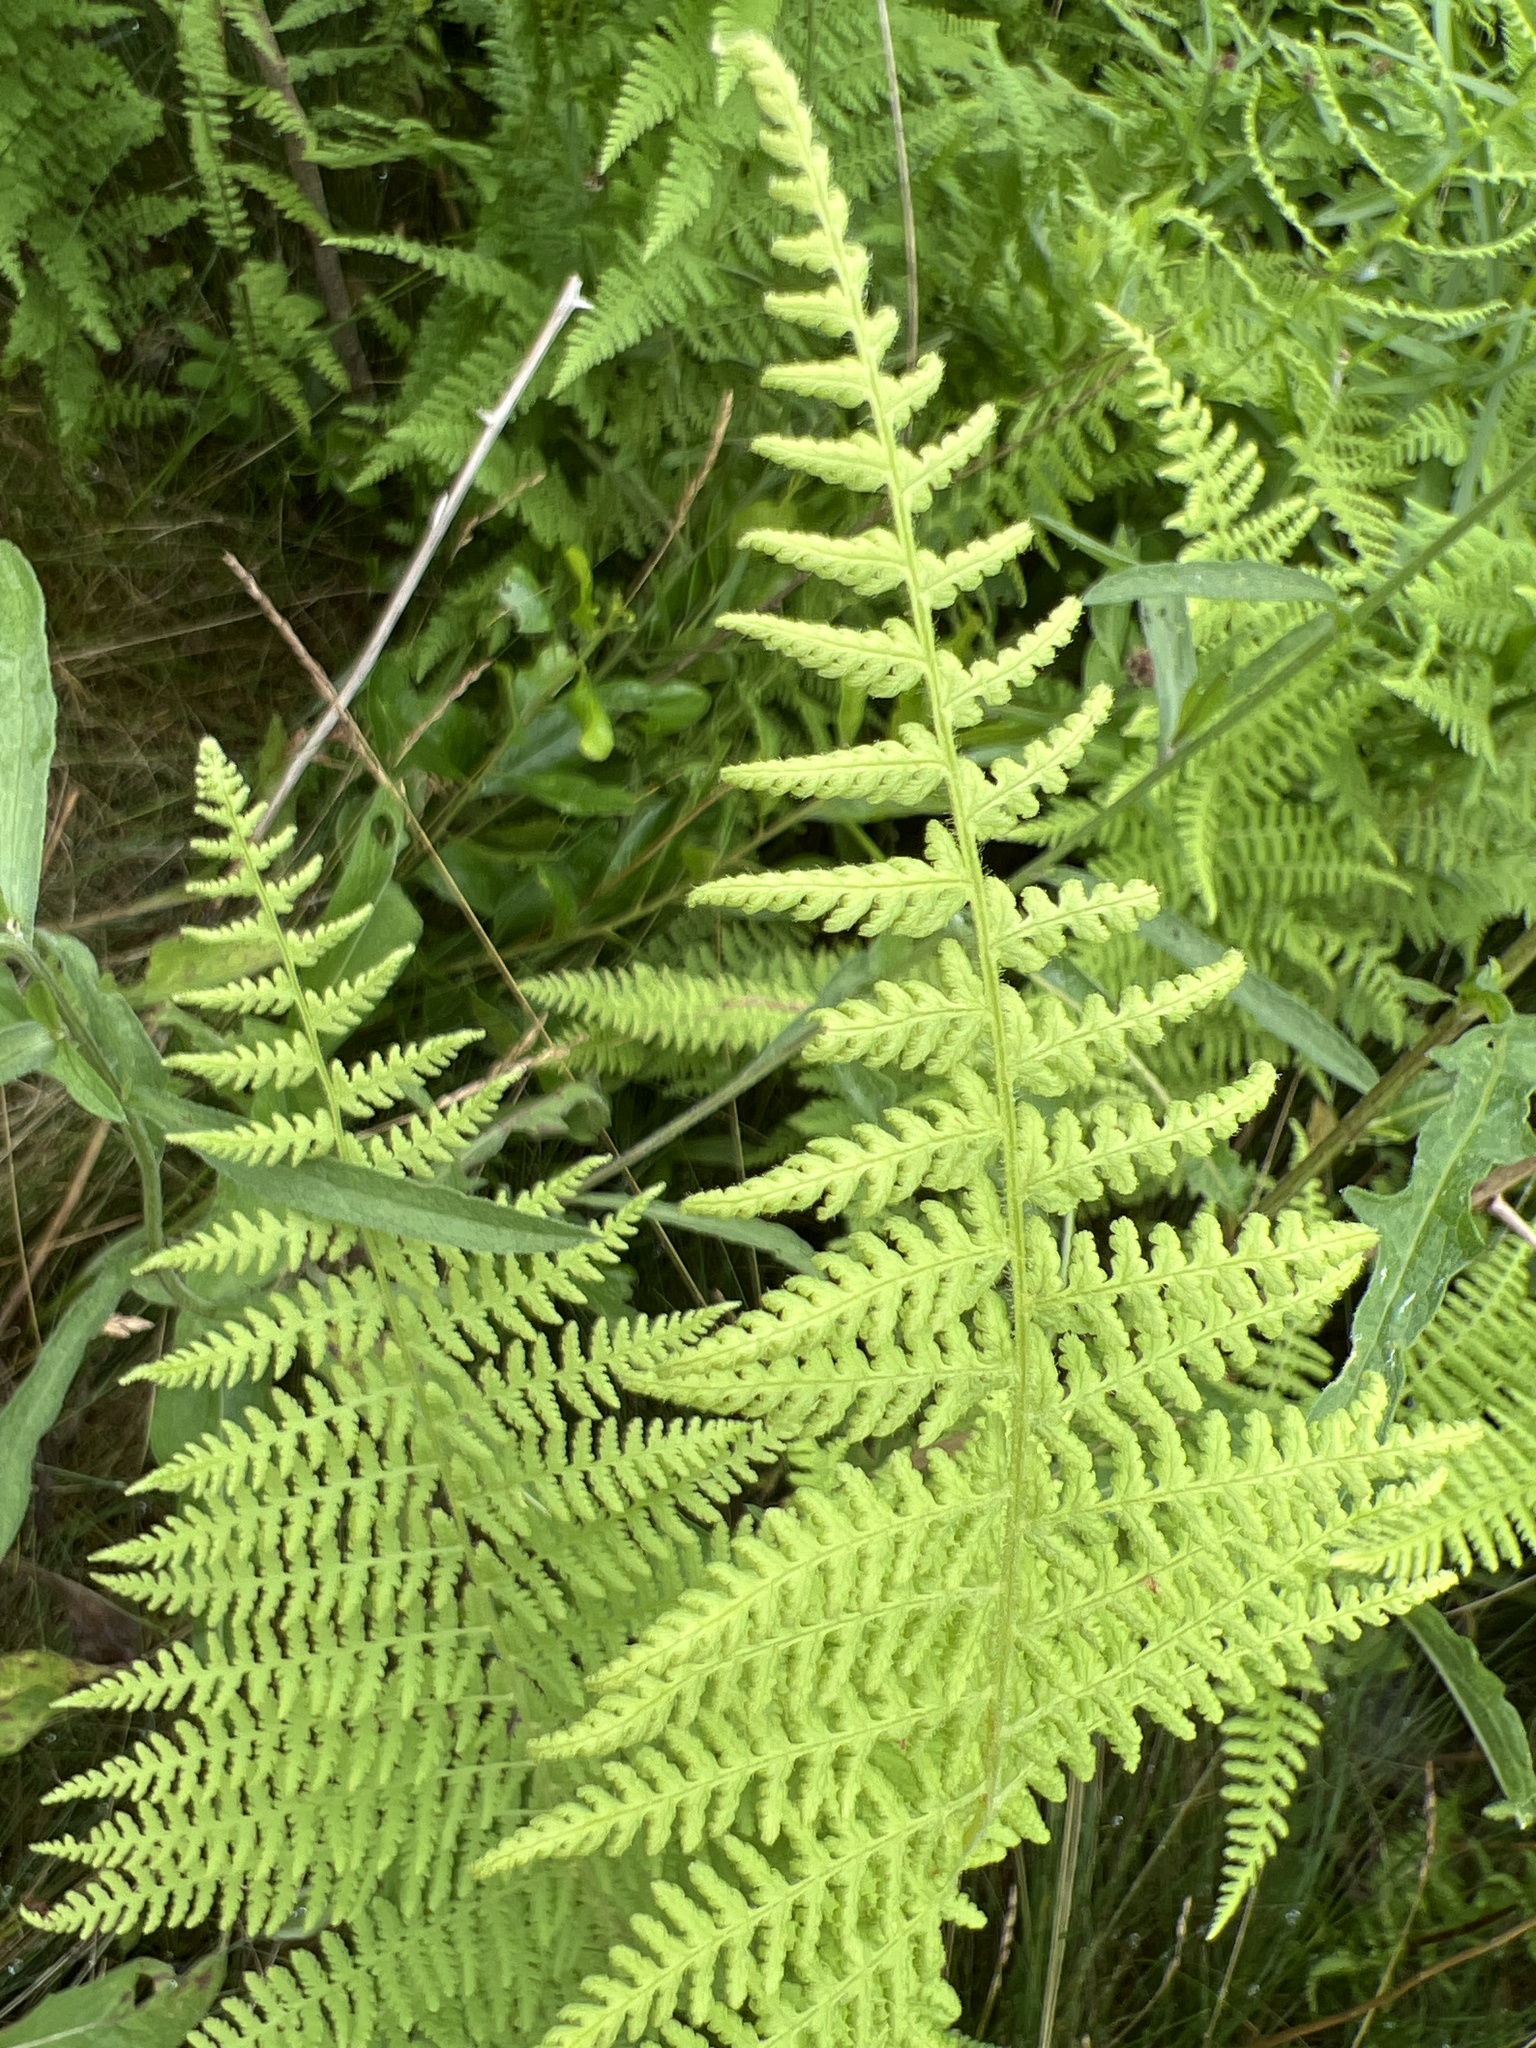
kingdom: Plantae
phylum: Tracheophyta
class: Polypodiopsida
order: Polypodiales
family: Dennstaedtiaceae
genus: Sitobolium
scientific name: Sitobolium punctilobum
